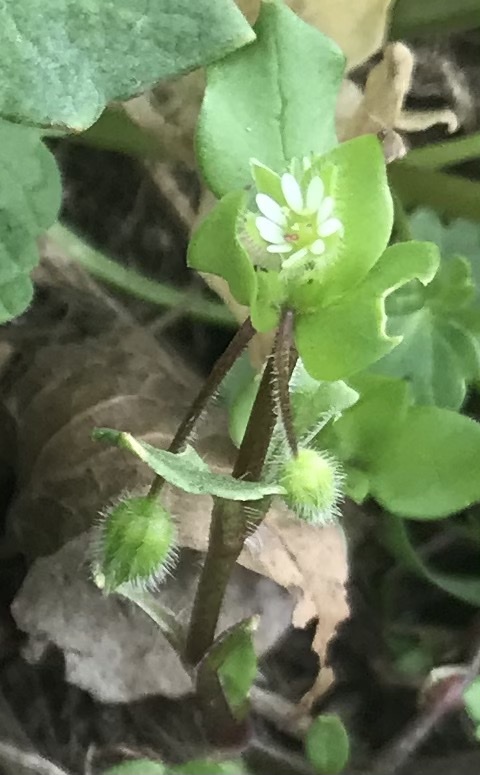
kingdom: Plantae
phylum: Tracheophyta
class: Magnoliopsida
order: Caryophyllales
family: Caryophyllaceae
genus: Stellaria
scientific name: Stellaria media
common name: Common chickweed
